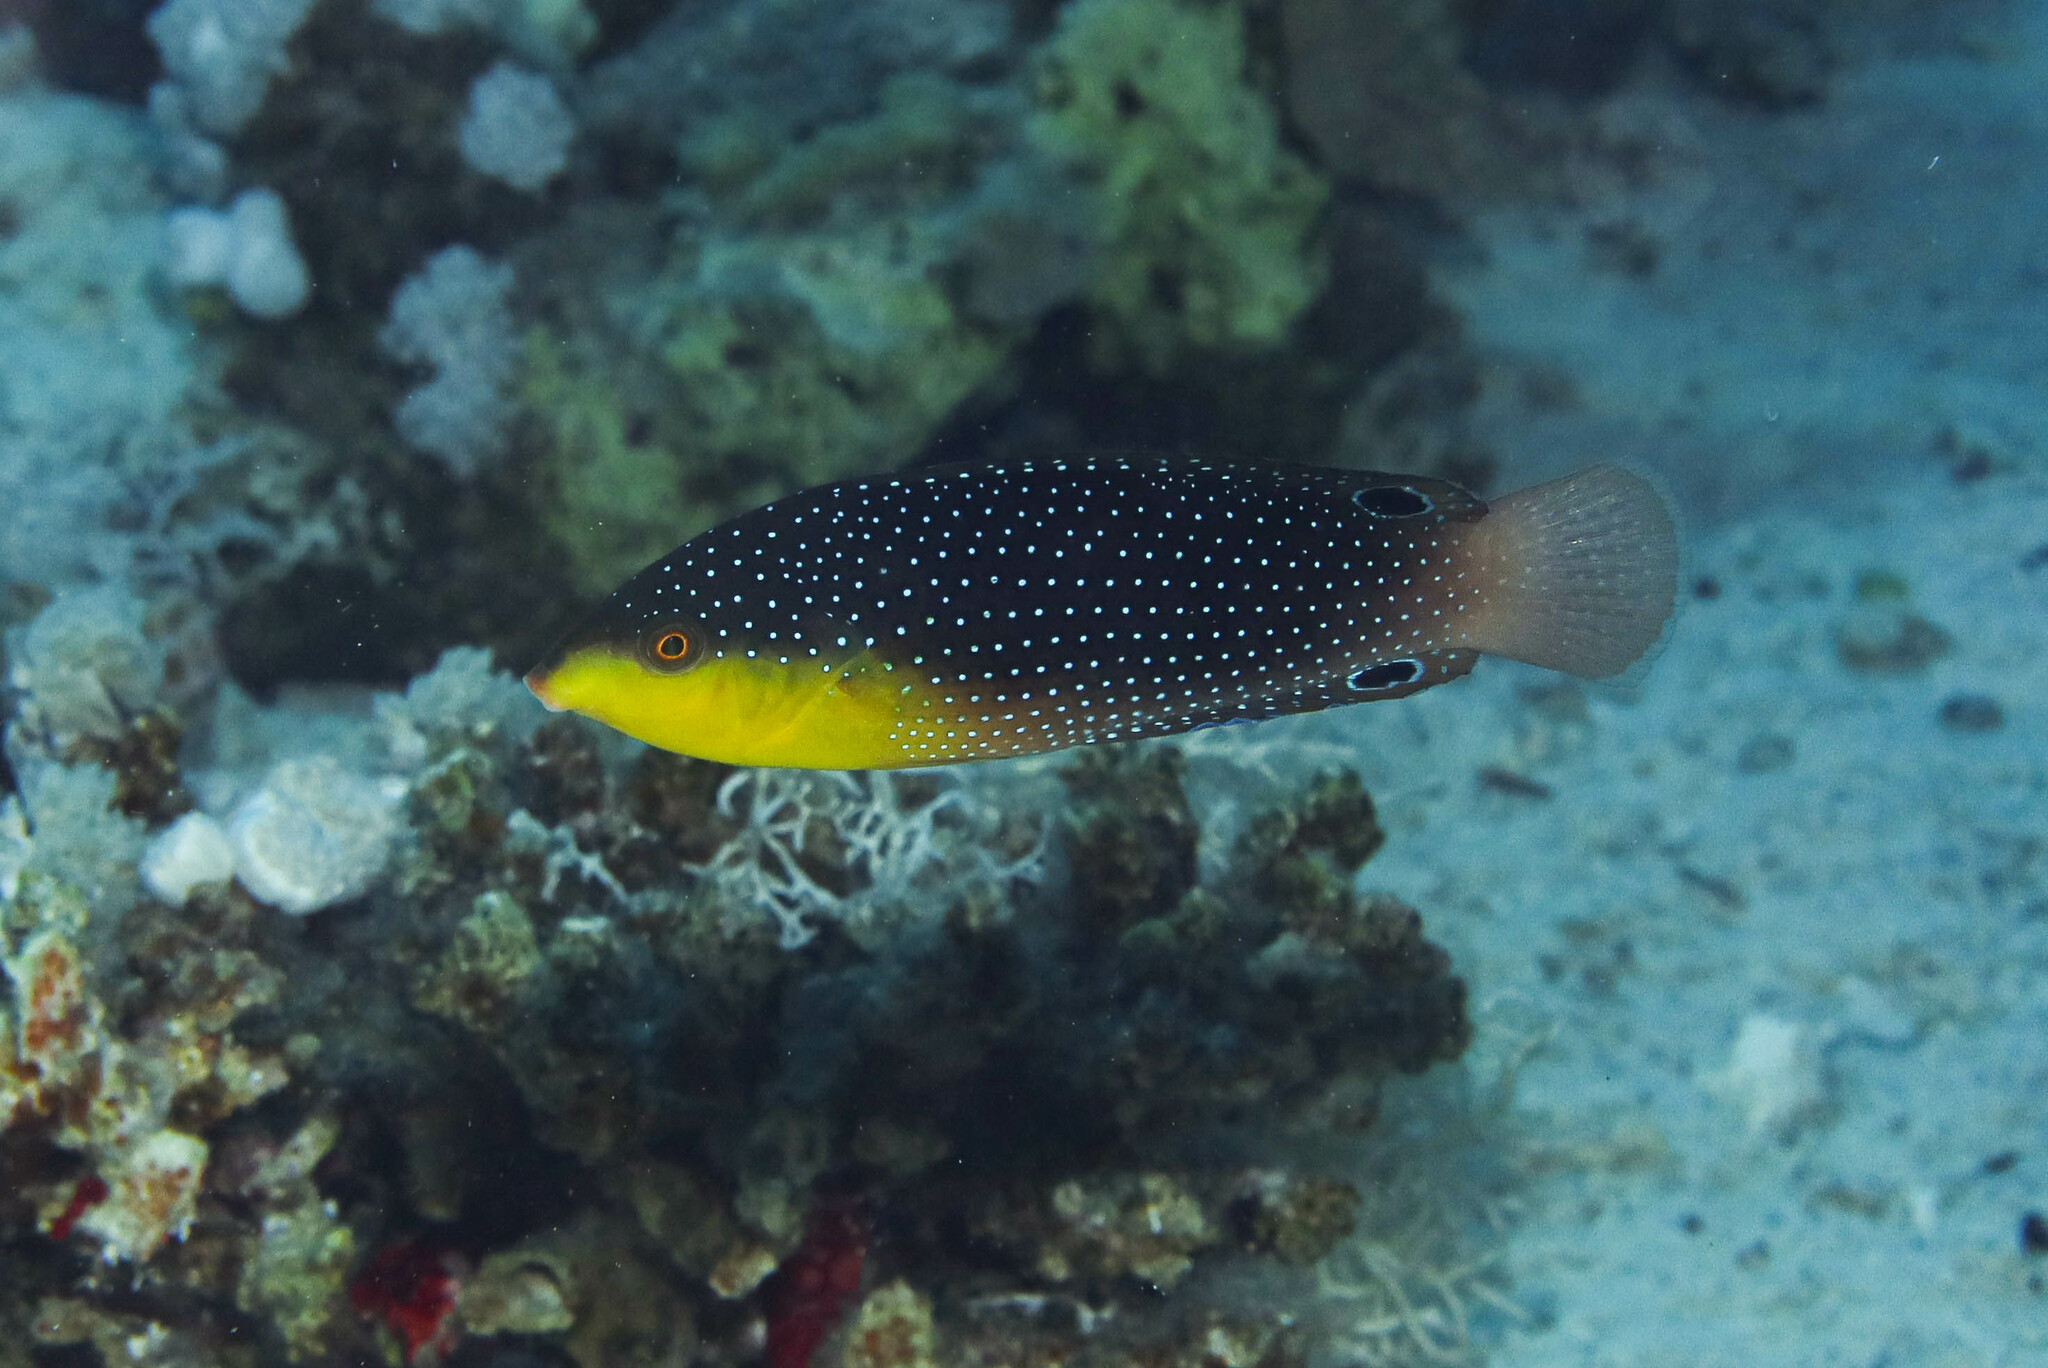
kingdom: Animalia
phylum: Chordata
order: Perciformes
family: Labridae
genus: Anampses
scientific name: Anampses twistii
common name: Yellowbreasted wrasse
